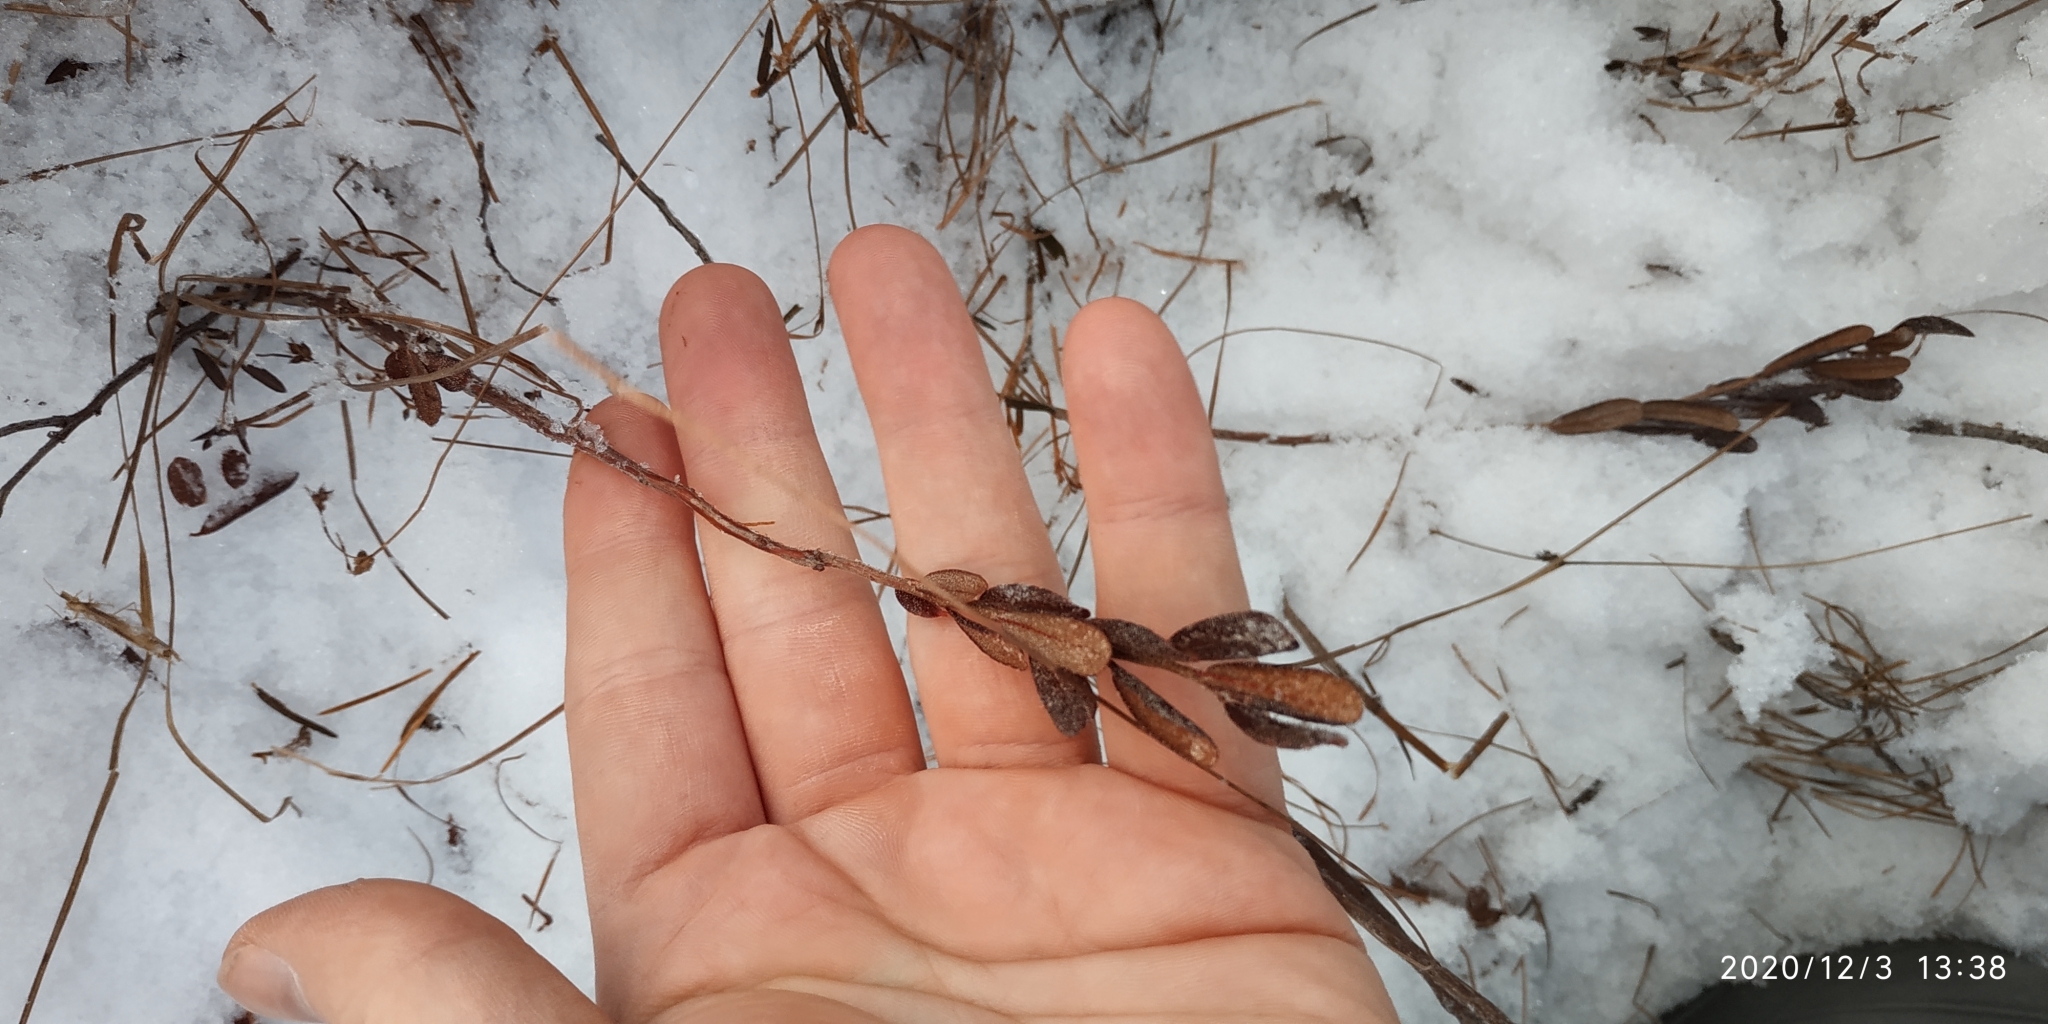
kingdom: Plantae
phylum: Tracheophyta
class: Magnoliopsida
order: Ericales
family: Ericaceae
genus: Chamaedaphne
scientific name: Chamaedaphne calyculata
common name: Leatherleaf
